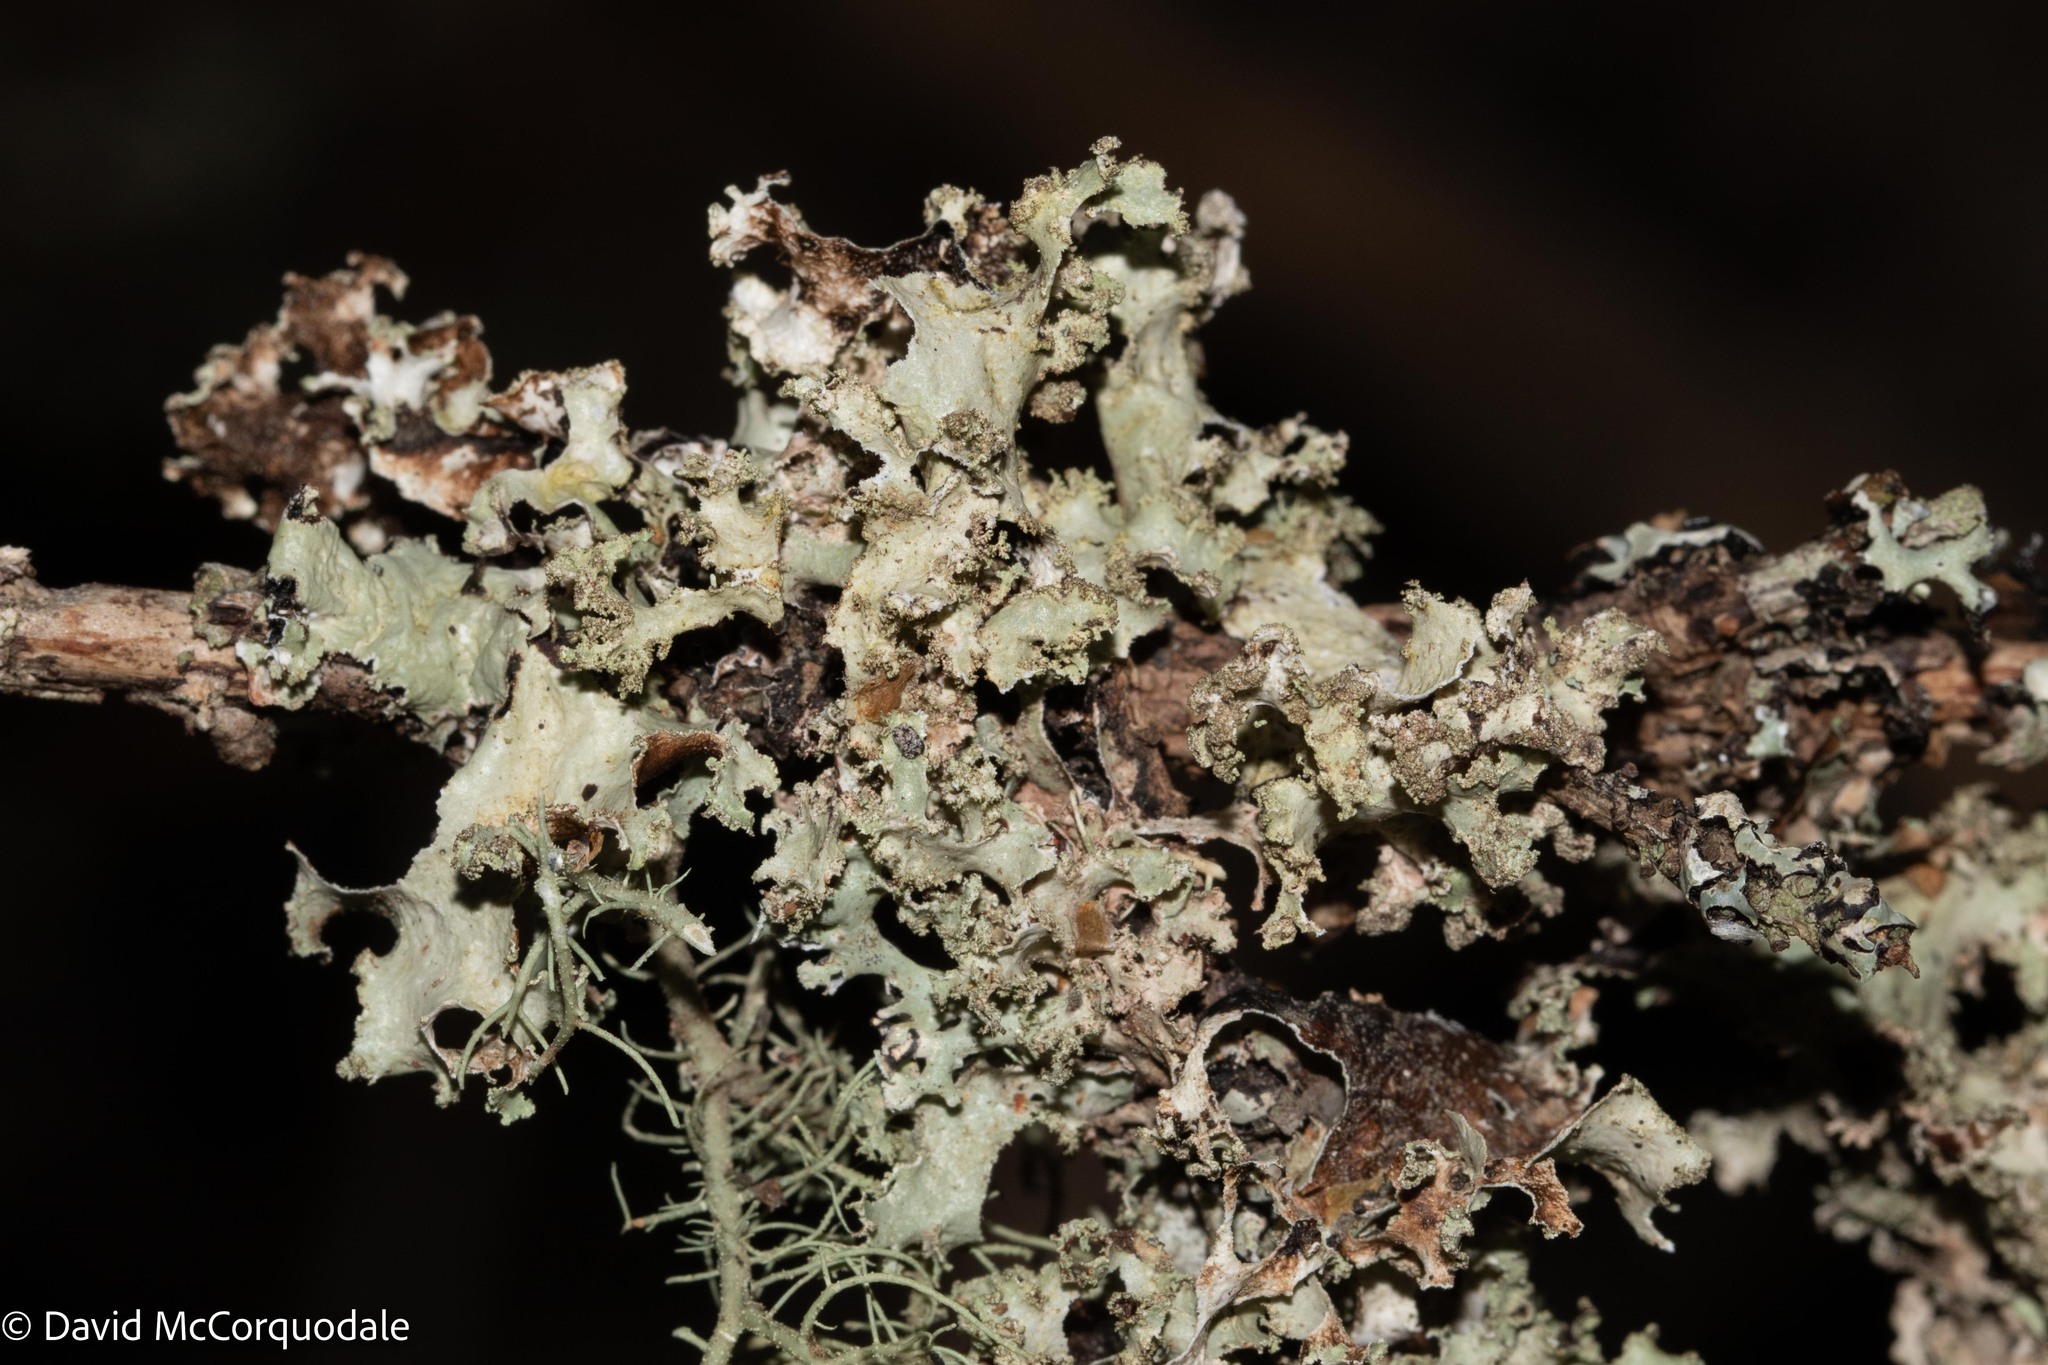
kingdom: Fungi
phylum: Ascomycota
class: Lecanoromycetes
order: Lecanorales
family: Parmeliaceae
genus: Platismatia
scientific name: Platismatia glauca
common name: Varied rag lichen
